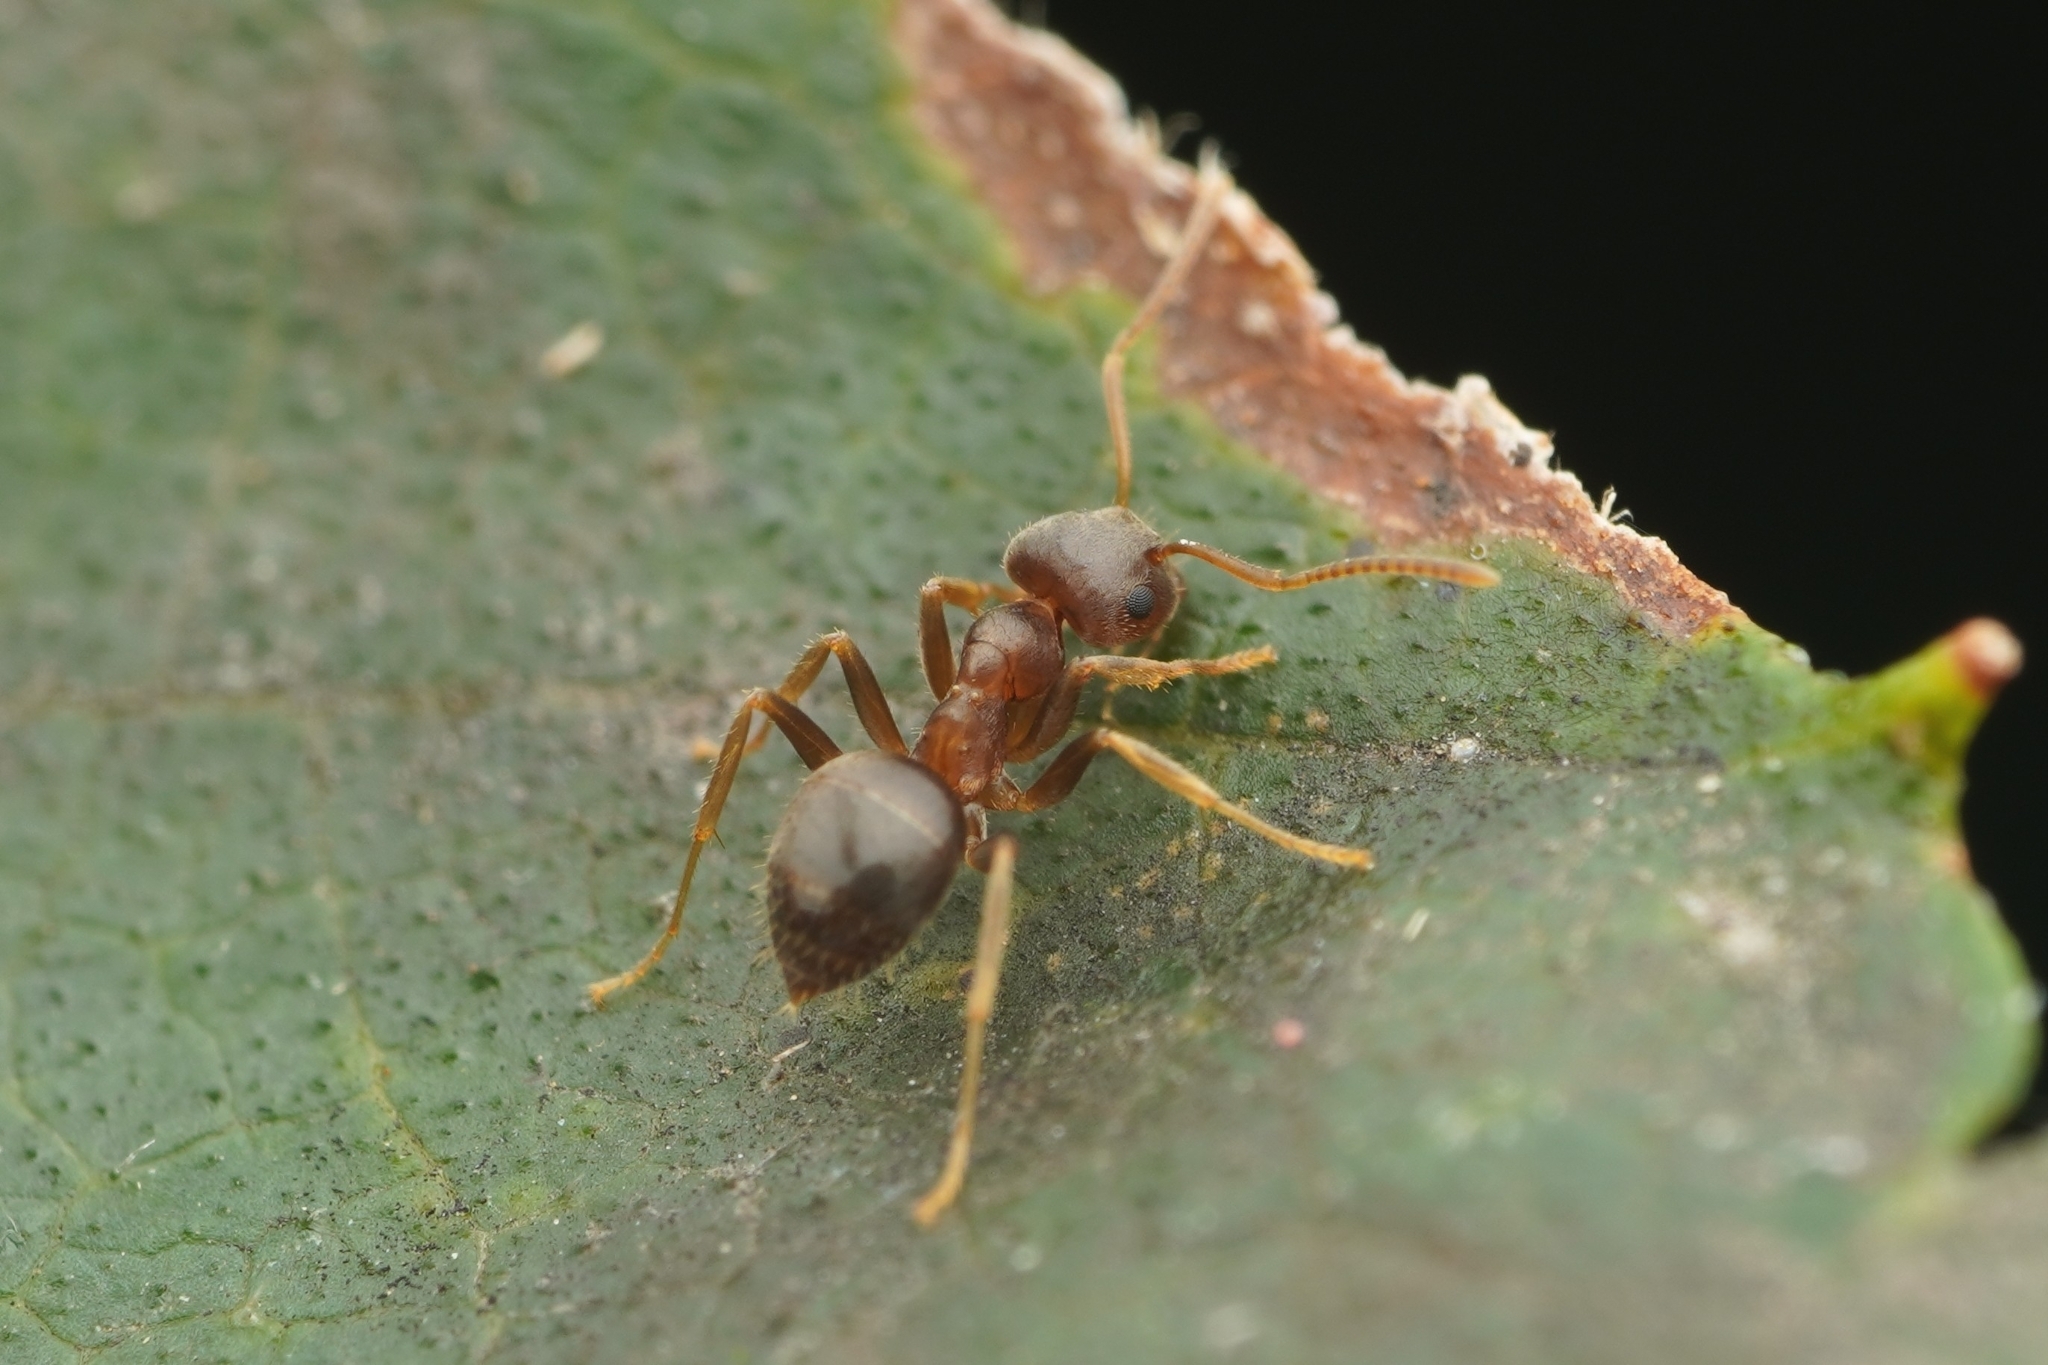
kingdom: Animalia
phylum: Arthropoda
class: Insecta
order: Hymenoptera
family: Formicidae
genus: Lasius
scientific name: Lasius koreanus
